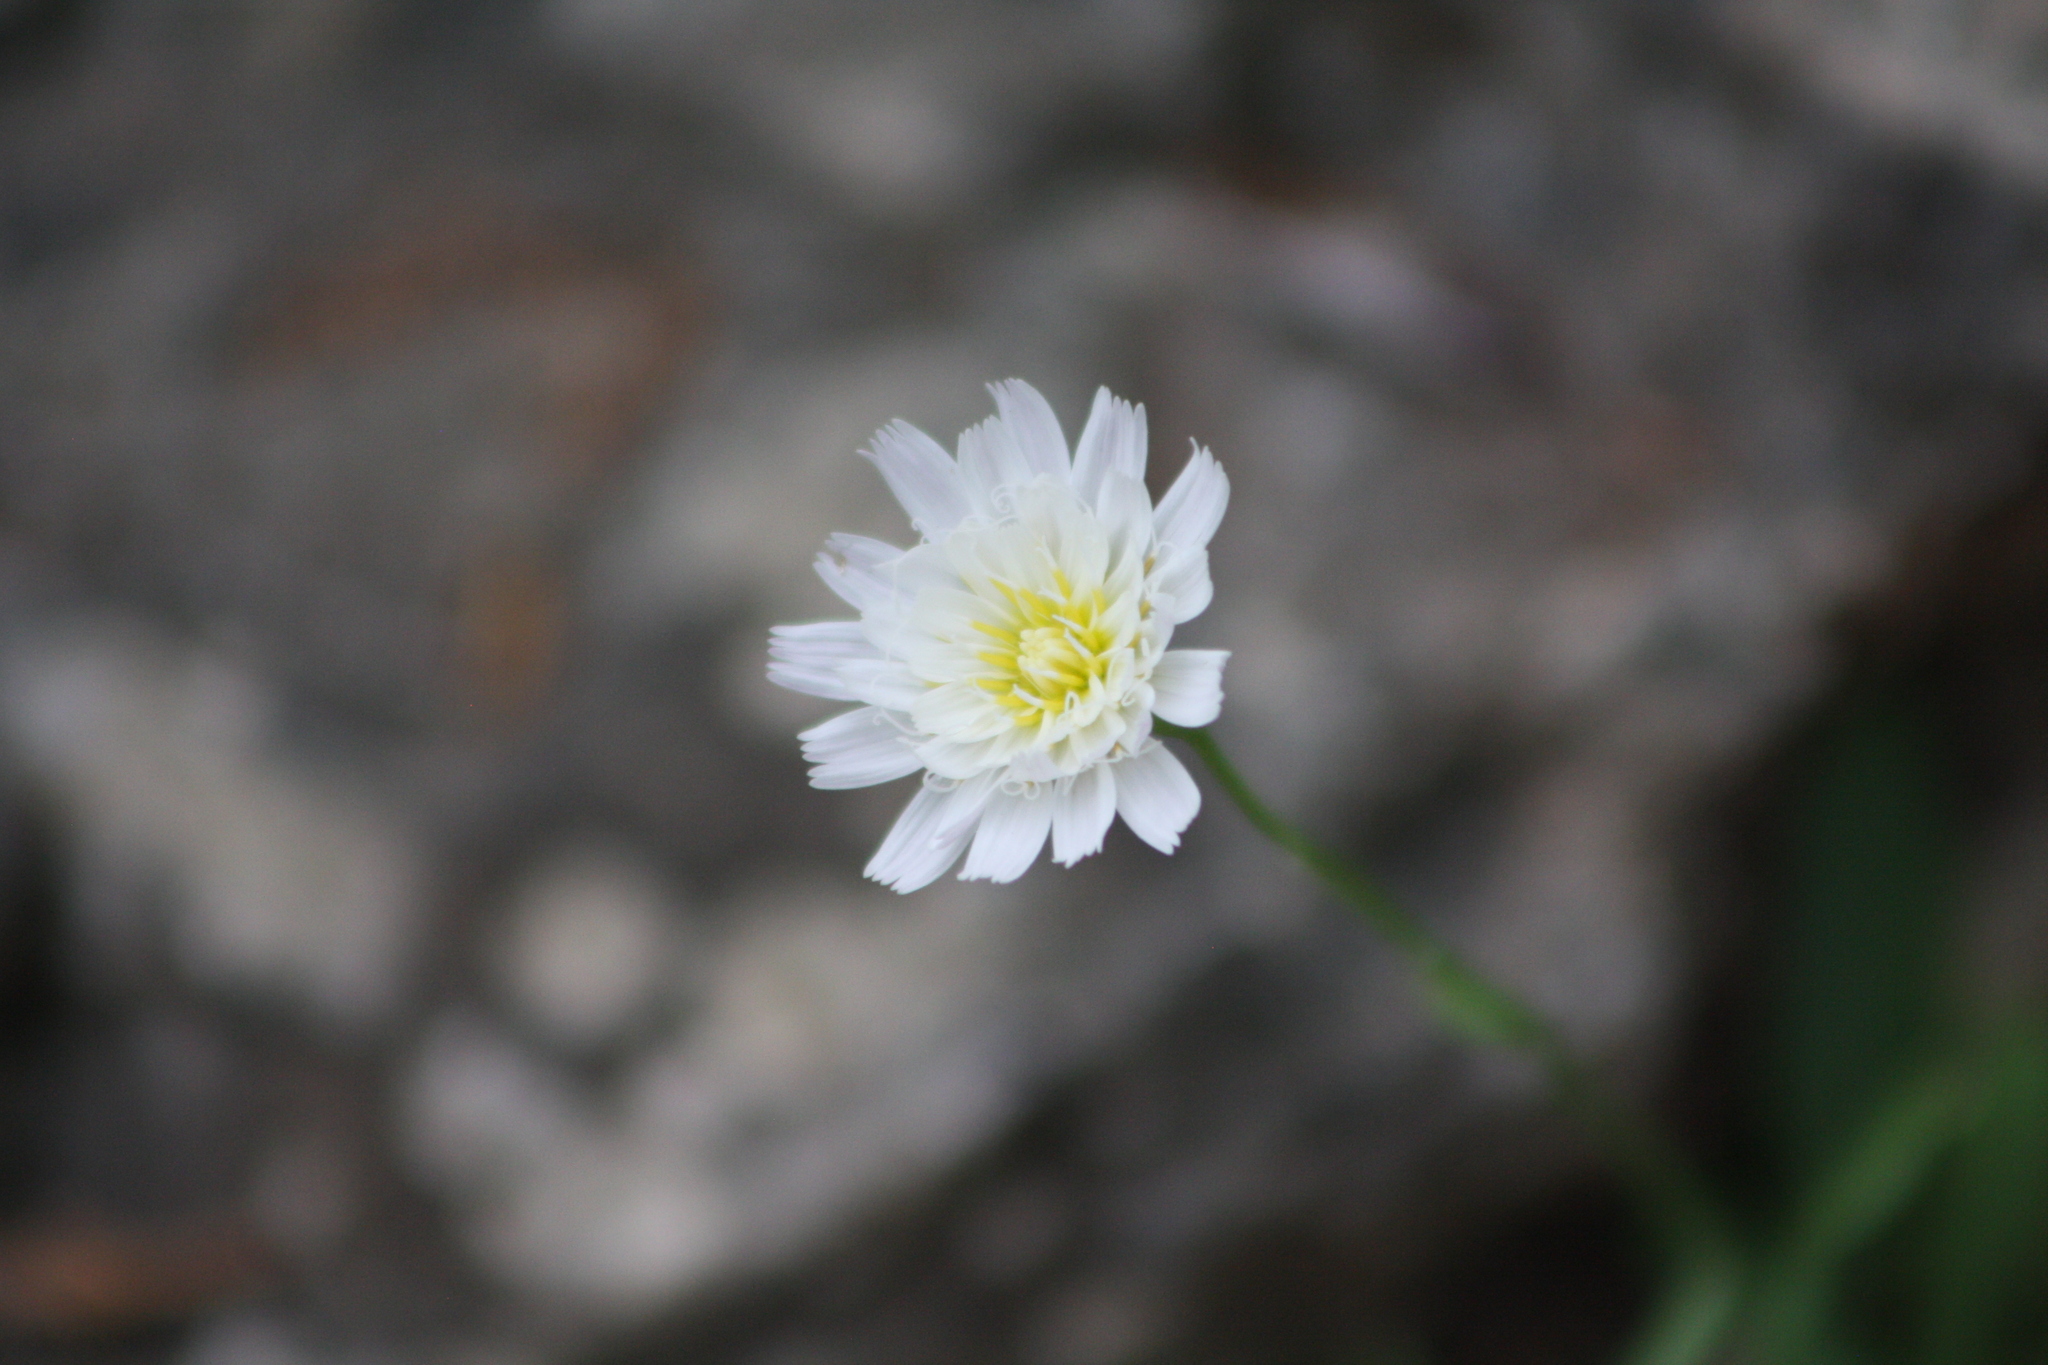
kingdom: Plantae
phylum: Tracheophyta
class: Magnoliopsida
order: Asterales
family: Asteraceae
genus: Pinaropappus
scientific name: Pinaropappus roseus
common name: Rock-lettuce
